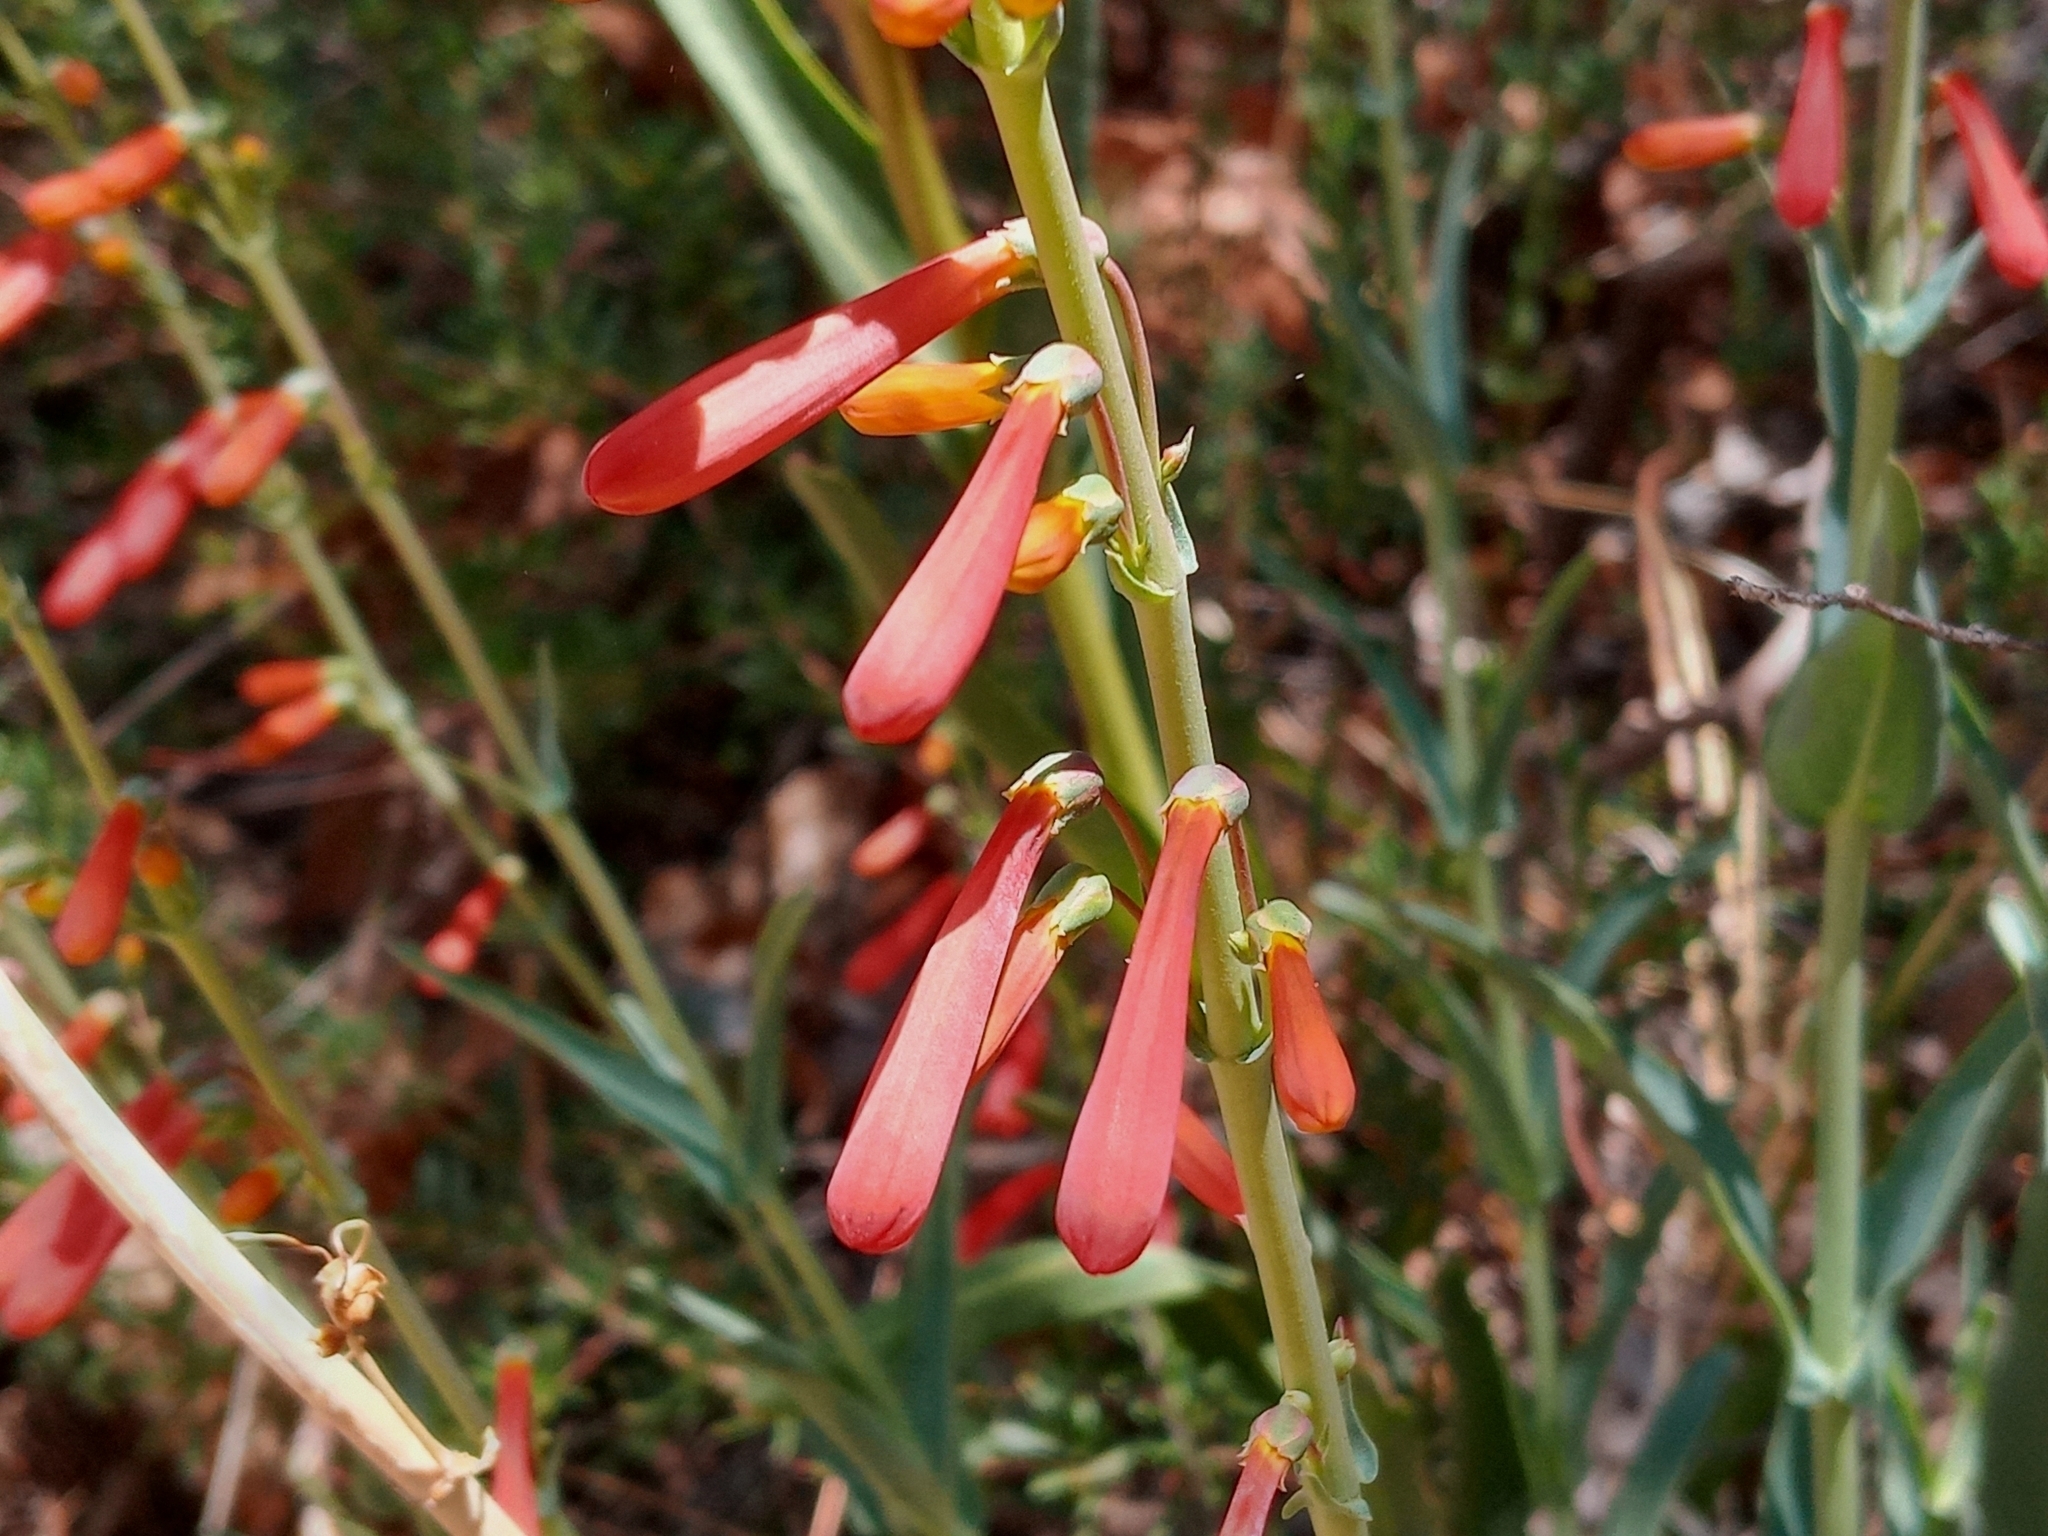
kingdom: Plantae
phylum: Tracheophyta
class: Magnoliopsida
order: Lamiales
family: Plantaginaceae
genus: Penstemon
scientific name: Penstemon centranthifolius
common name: Scarlet bugler
